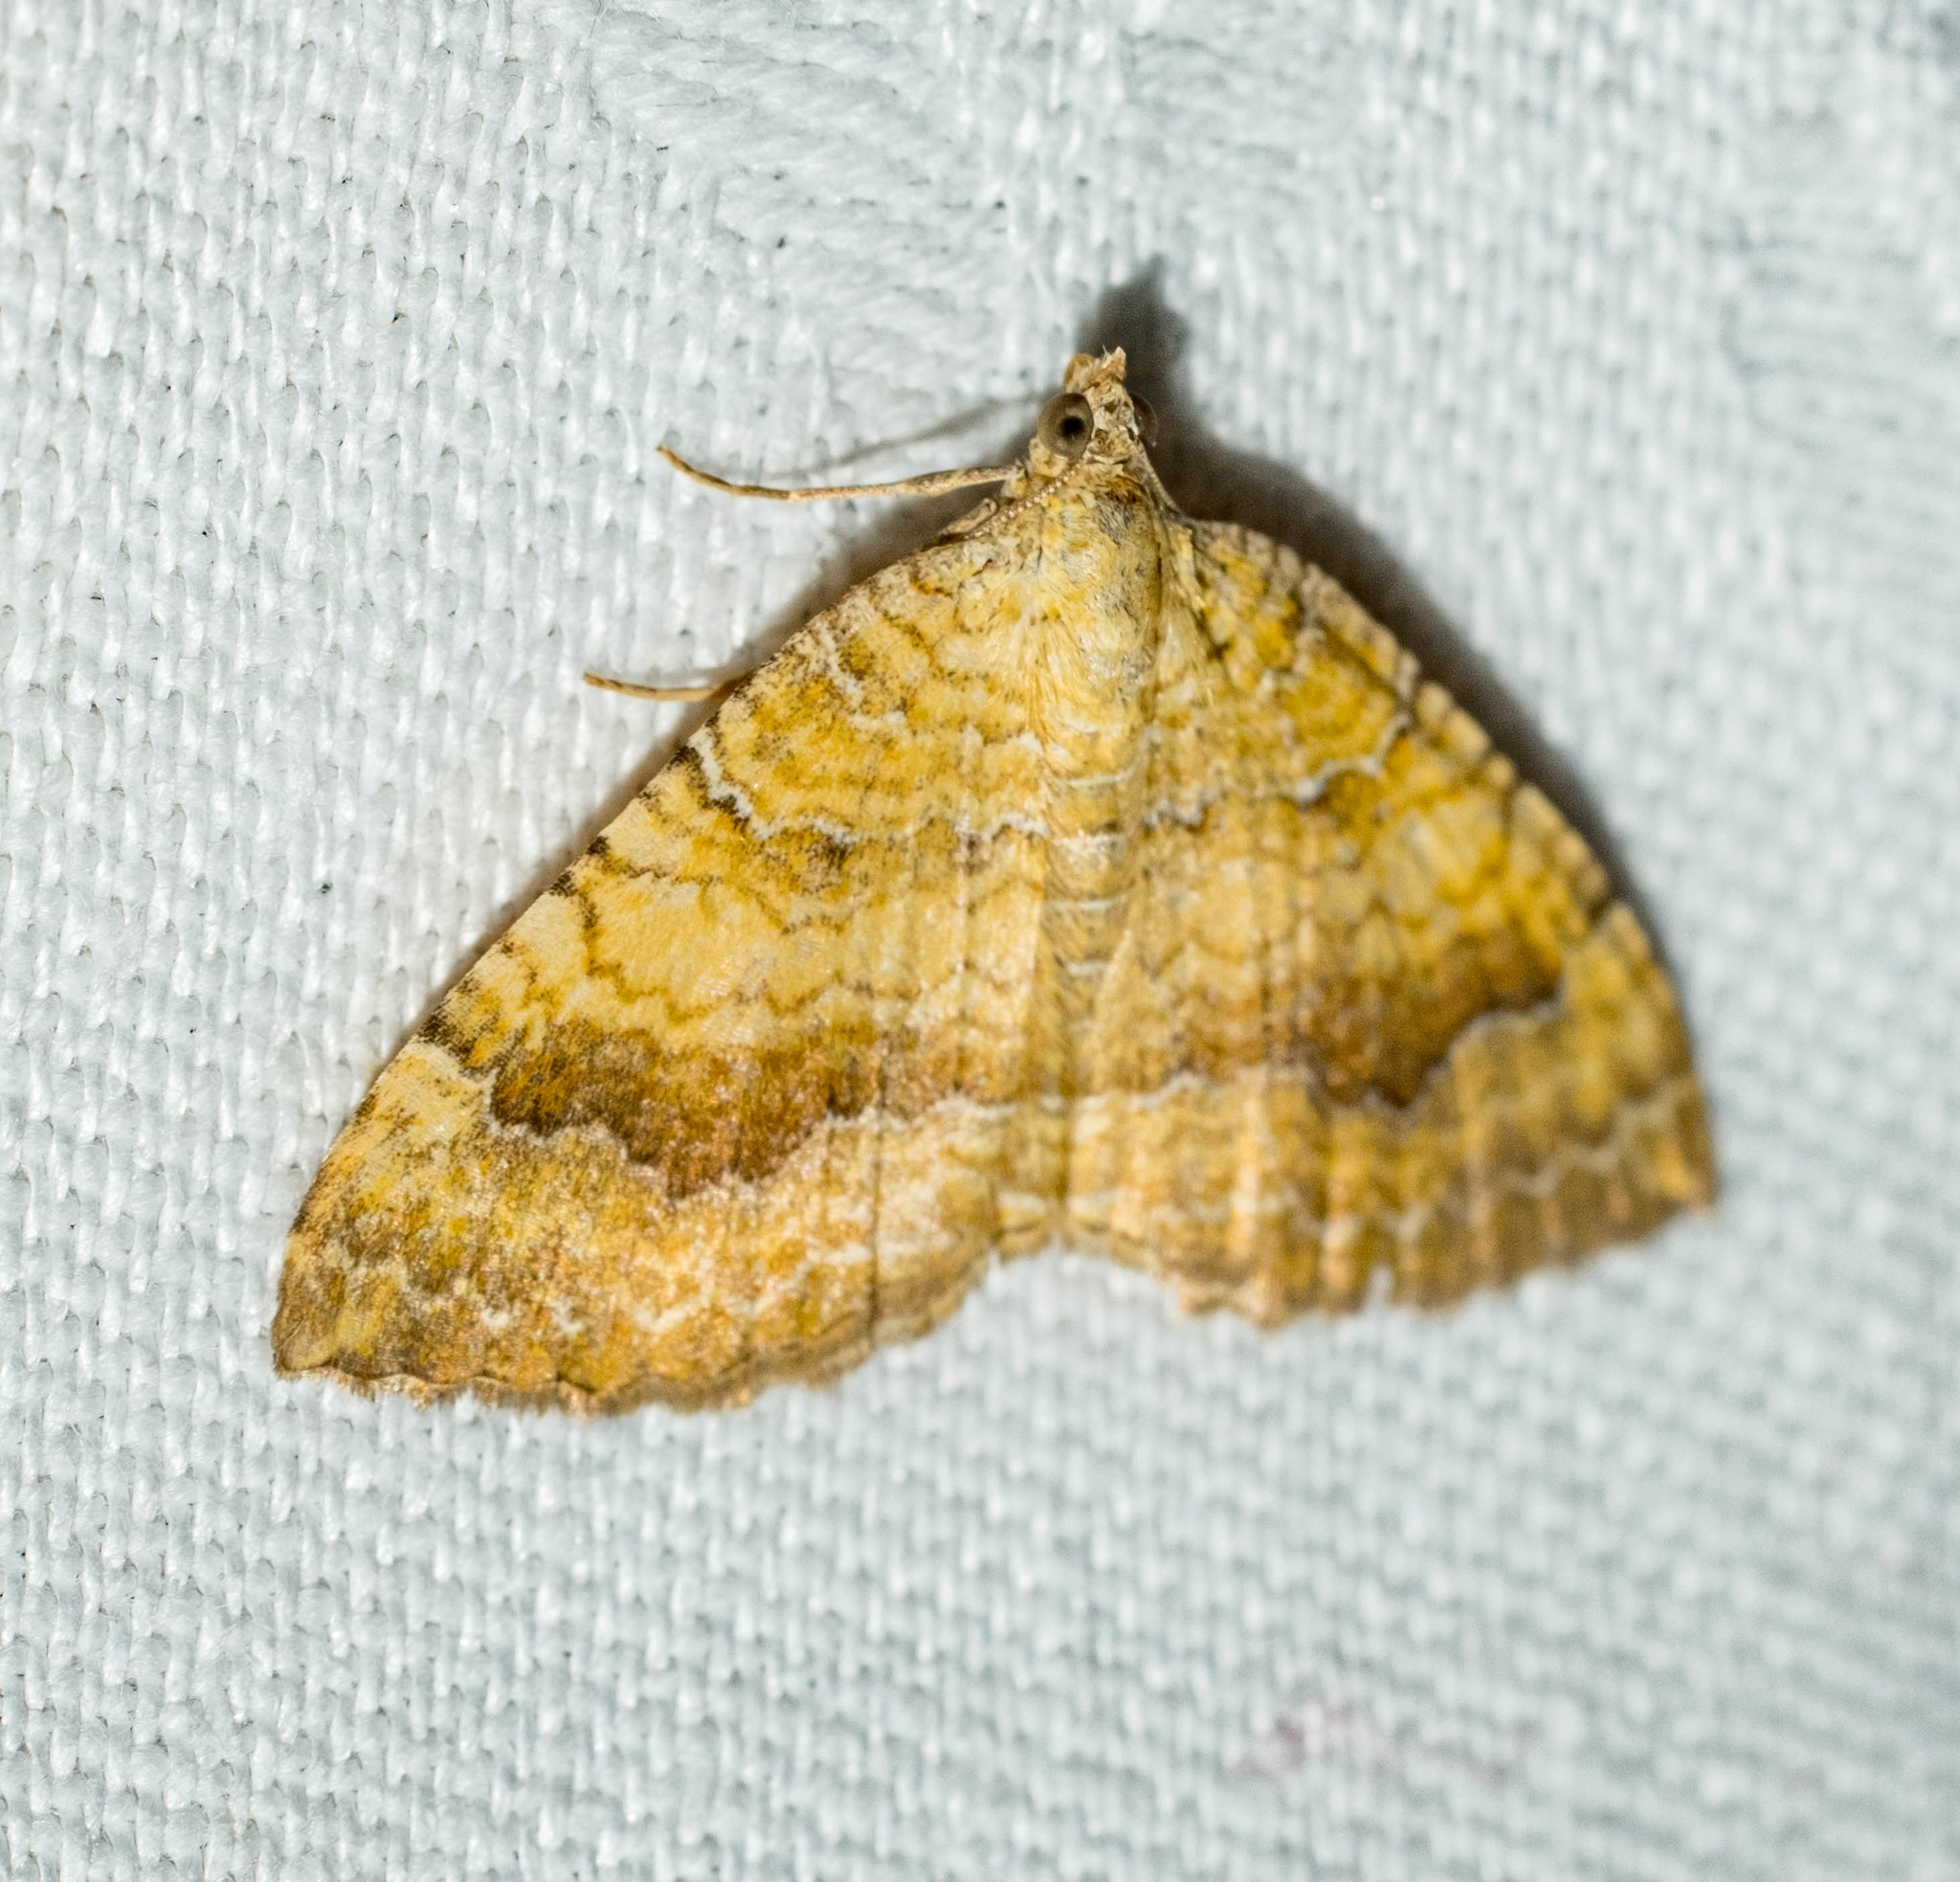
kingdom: Animalia
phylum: Arthropoda
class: Insecta
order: Lepidoptera
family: Geometridae
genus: Camptogramma
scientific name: Camptogramma bilineata
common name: Yellow shell
